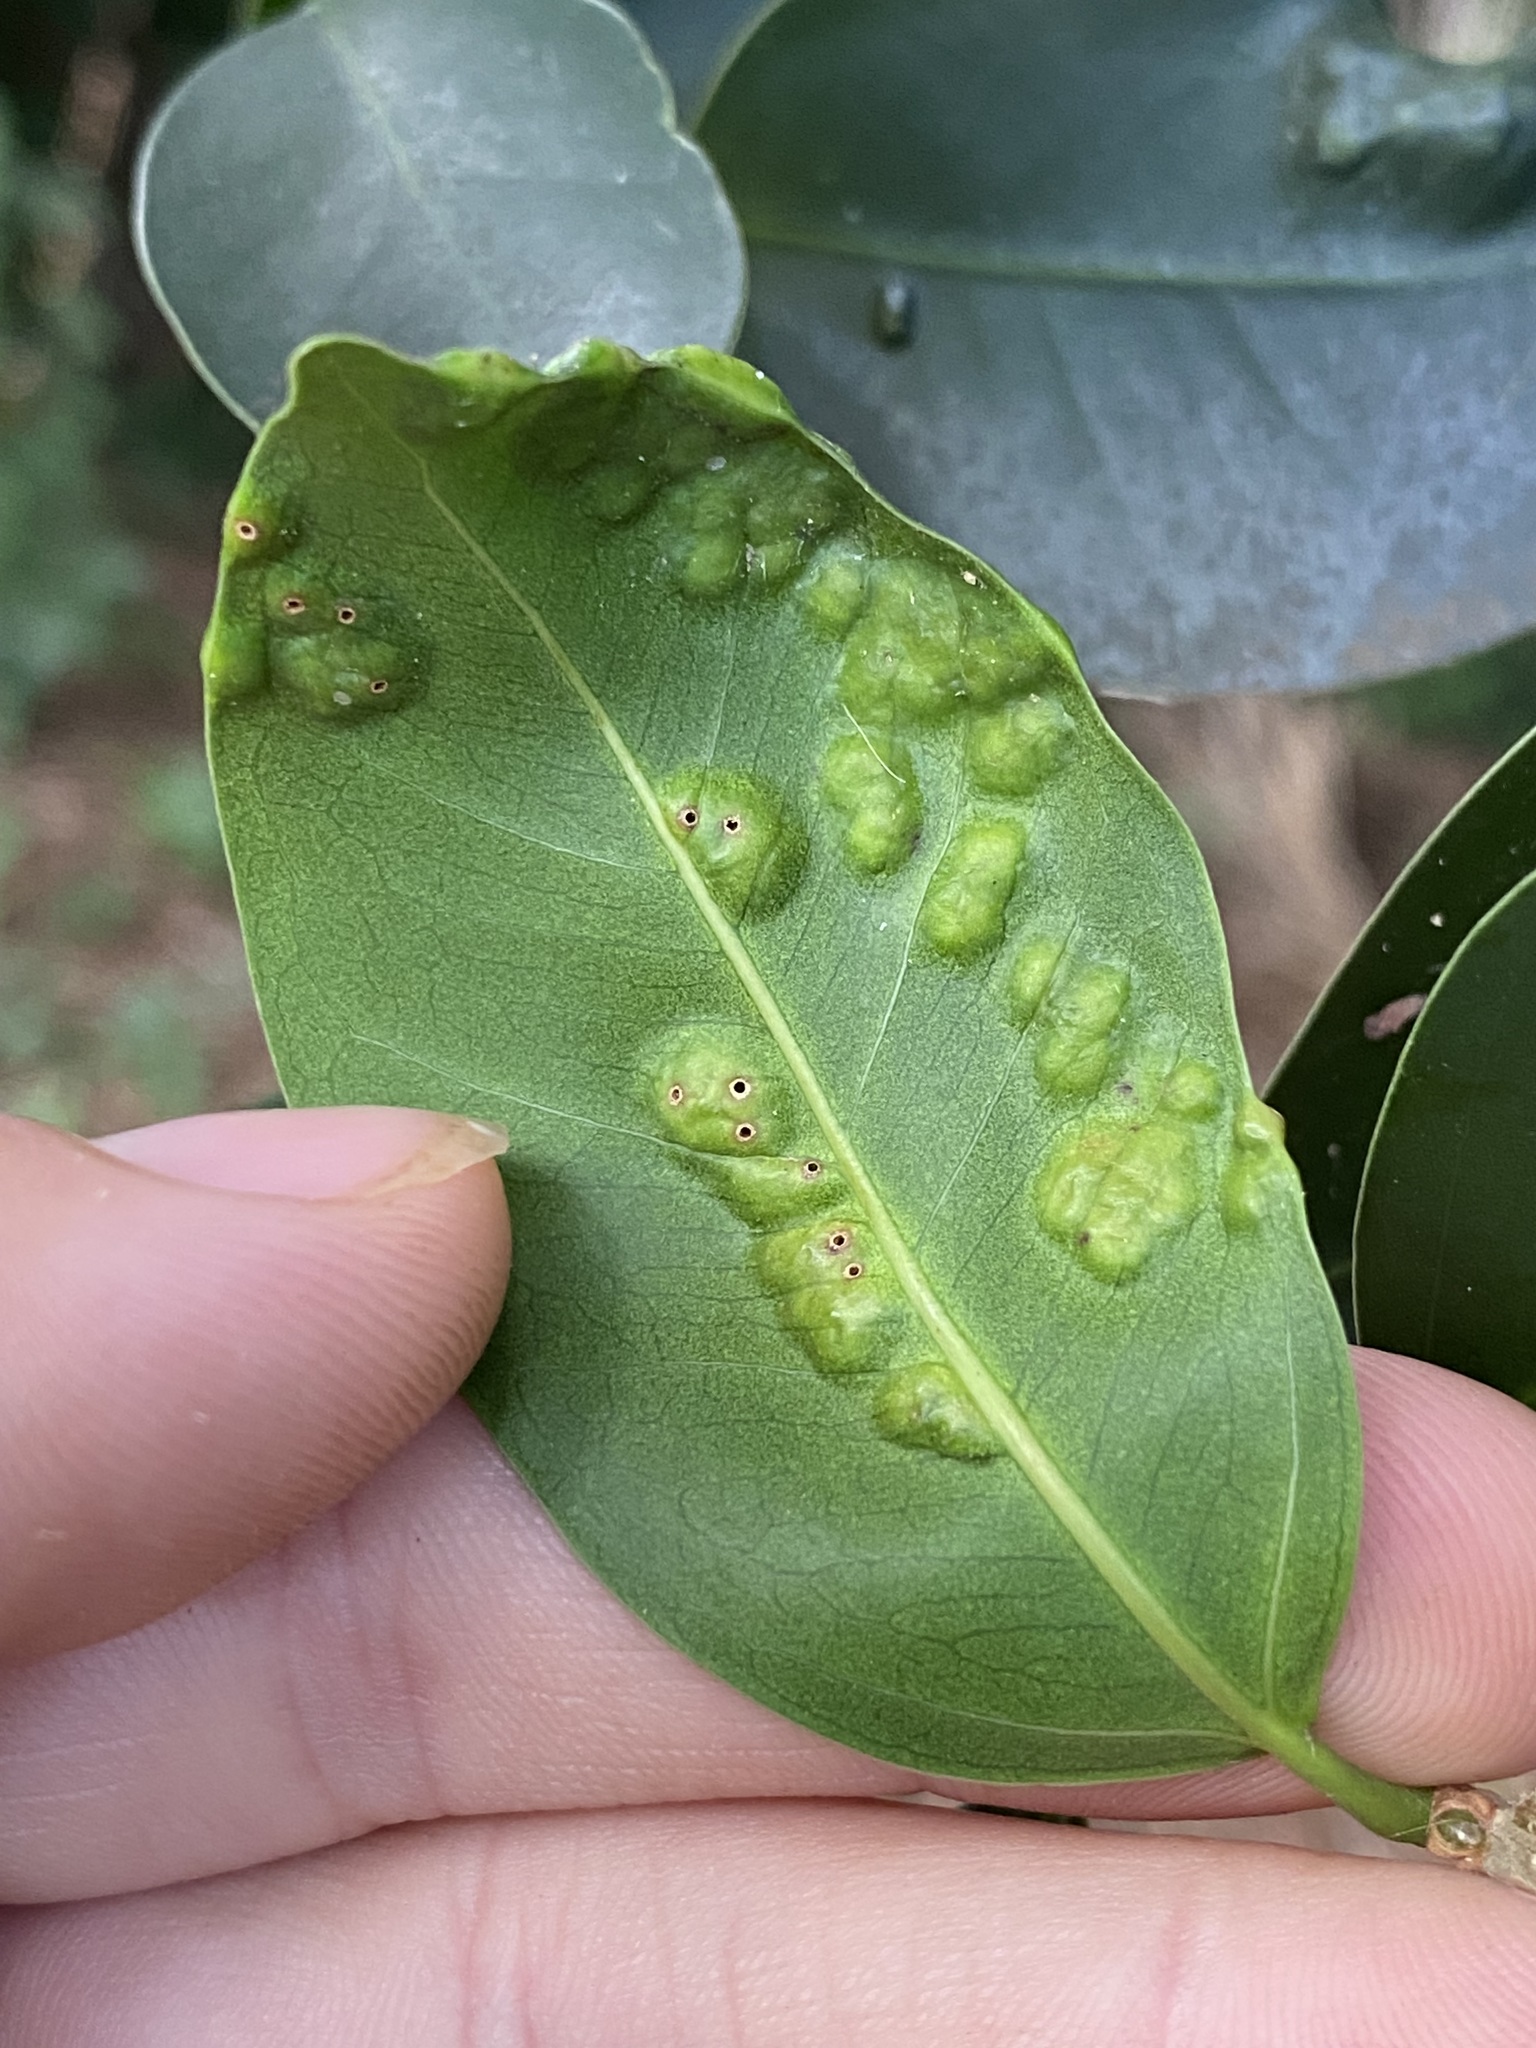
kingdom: Animalia
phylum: Arthropoda
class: Insecta
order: Hymenoptera
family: Agaonidae
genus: Josephiella
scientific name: Josephiella microcarpae
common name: Wasp
